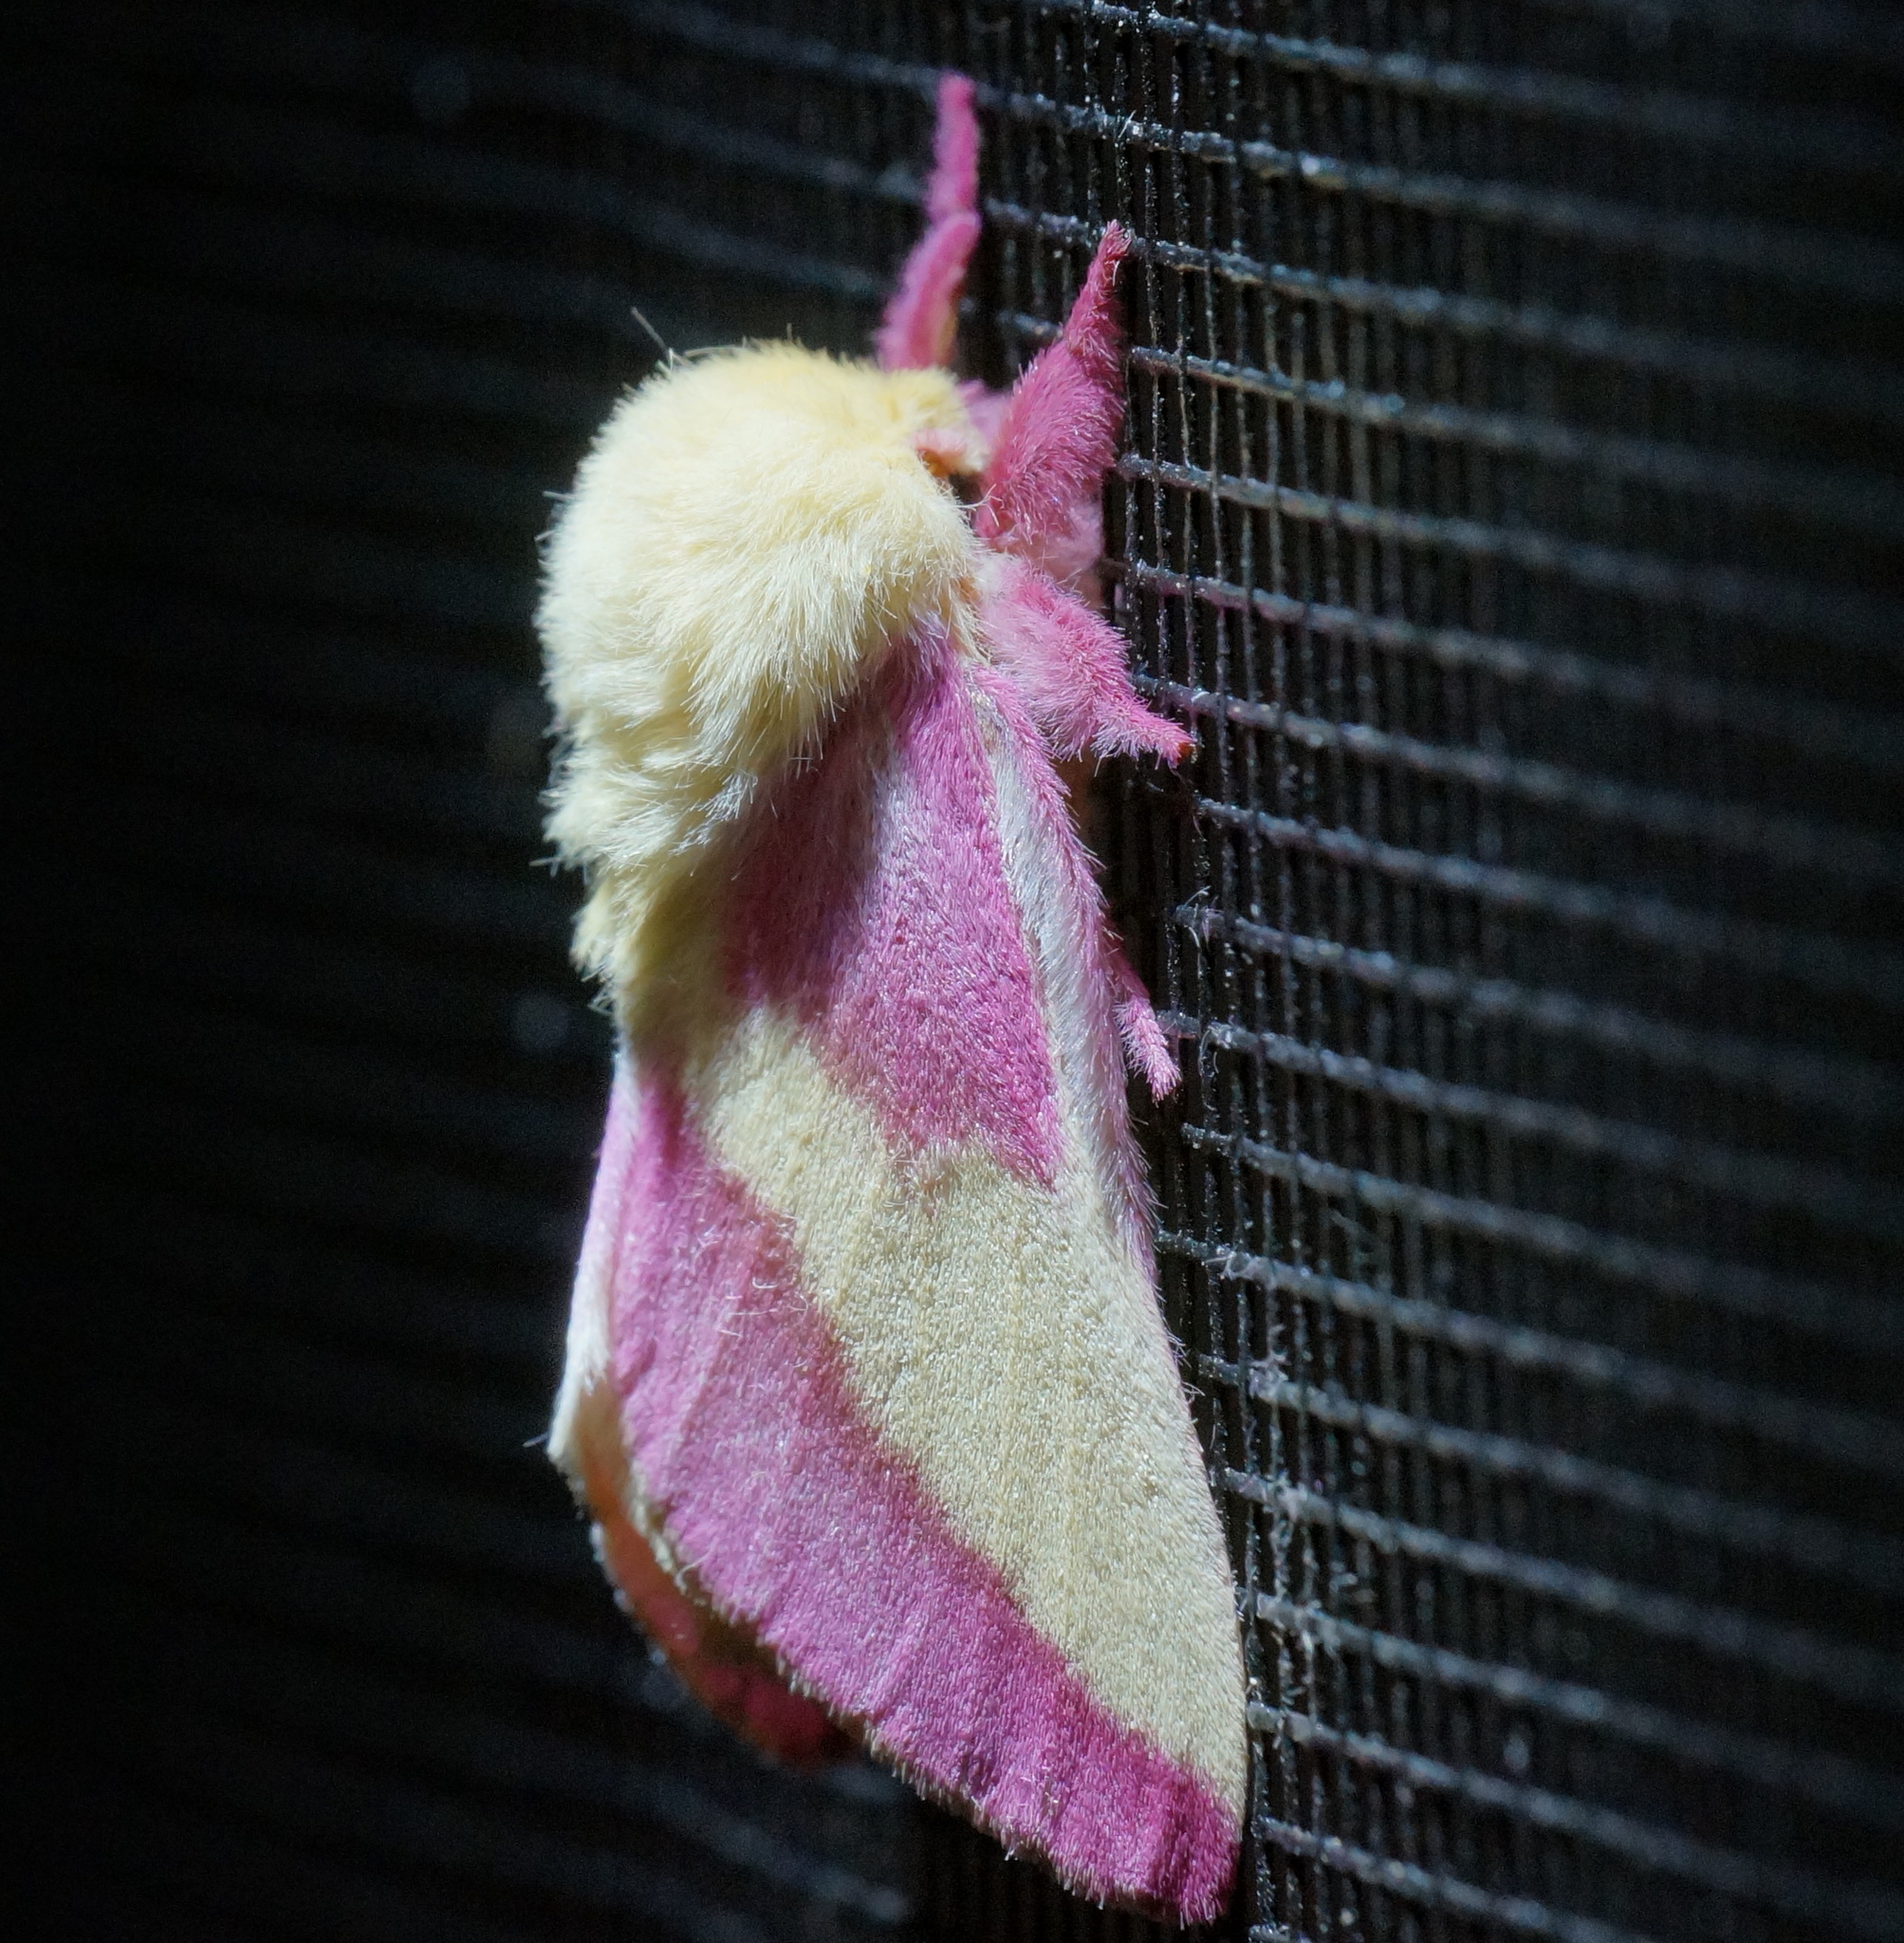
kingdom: Animalia
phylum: Arthropoda
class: Insecta
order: Lepidoptera
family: Saturniidae
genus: Dryocampa
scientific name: Dryocampa rubicunda
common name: Rosy maple moth
